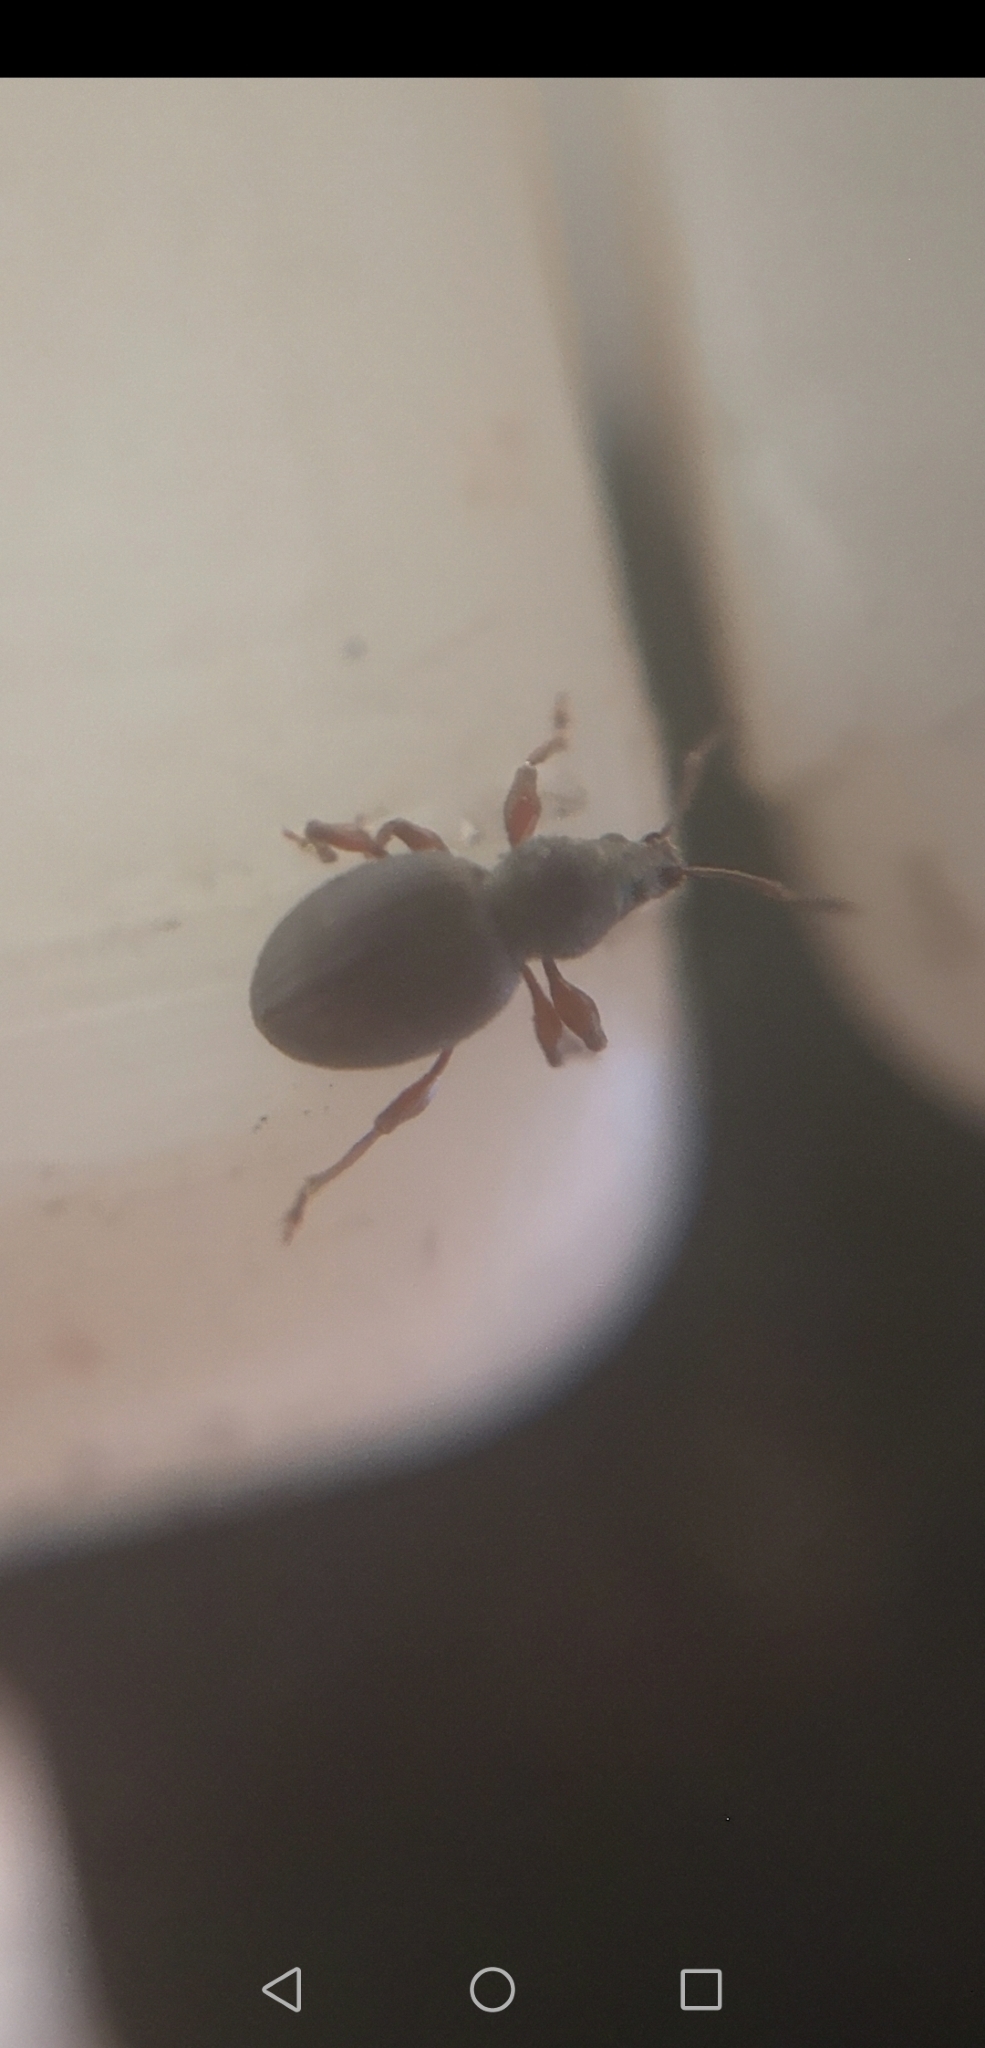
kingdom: Animalia
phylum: Arthropoda
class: Insecta
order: Coleoptera
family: Curculionidae
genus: Otiorhynchus
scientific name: Otiorhynchus ovatus
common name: Strawberry root weevil
